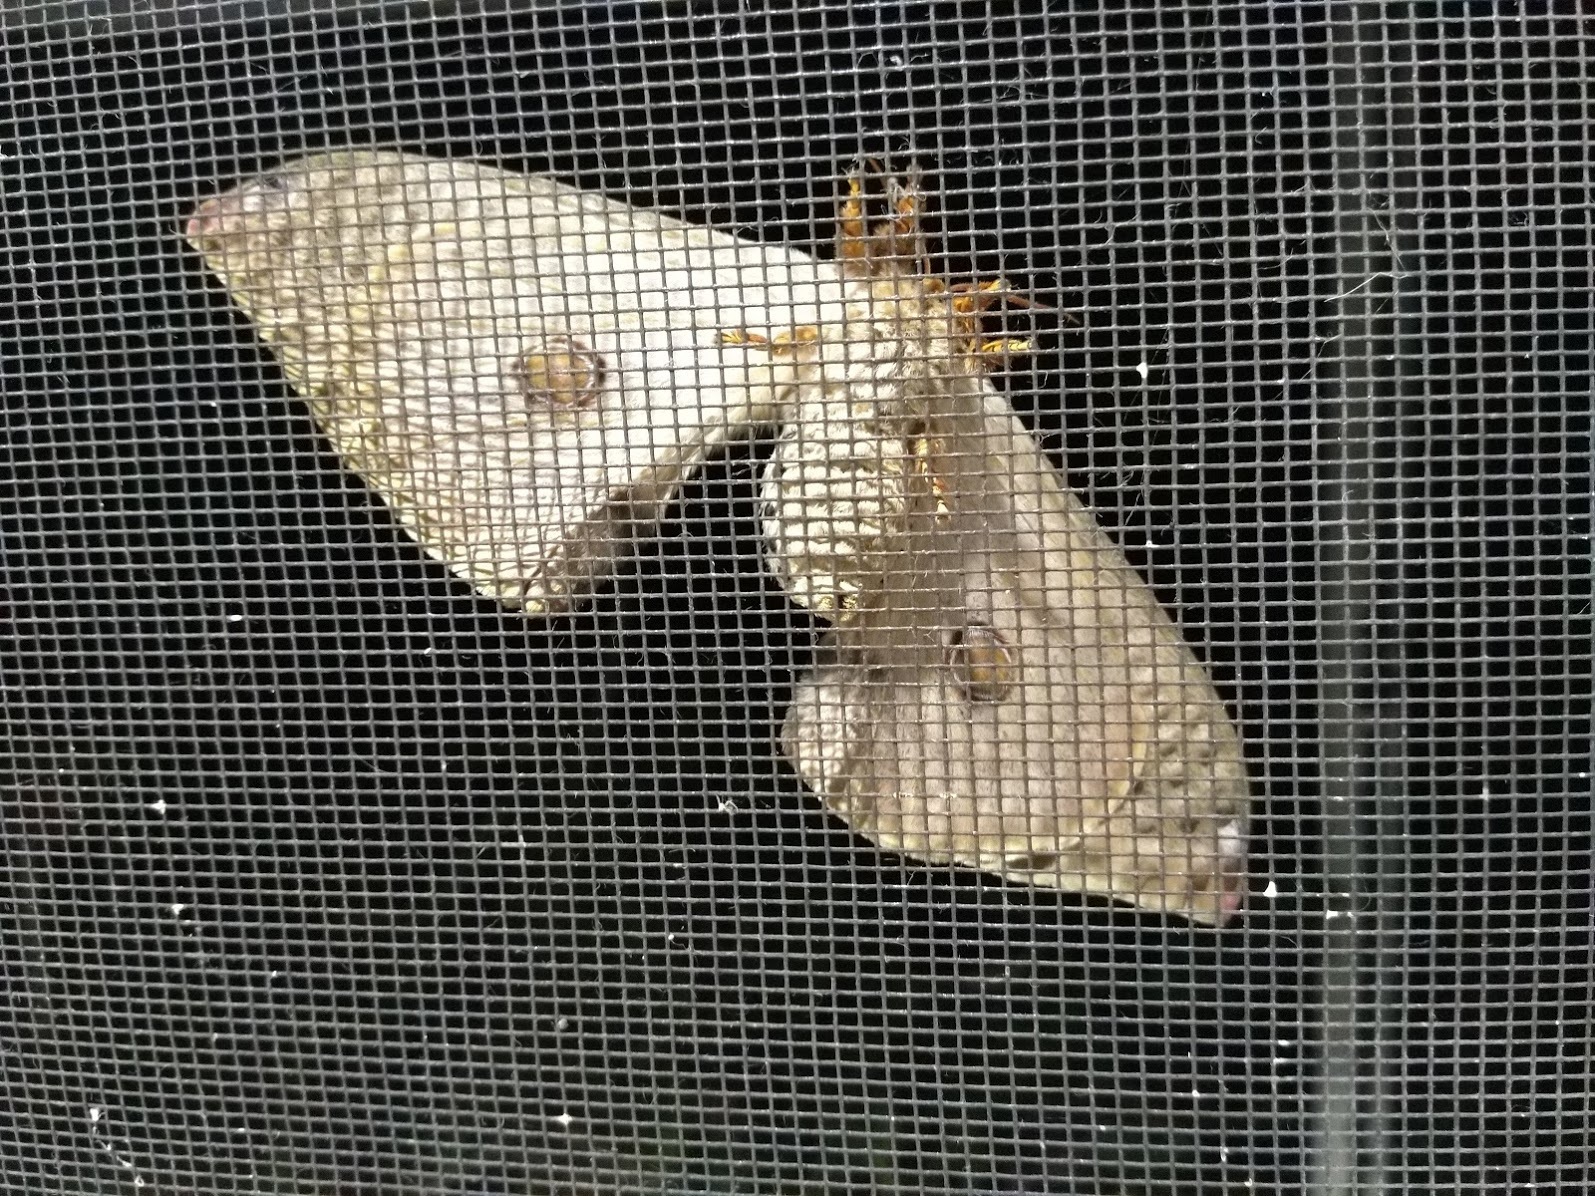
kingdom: Animalia
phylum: Arthropoda
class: Insecta
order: Lepidoptera
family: Saturniidae
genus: Opodiphthera
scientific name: Opodiphthera
